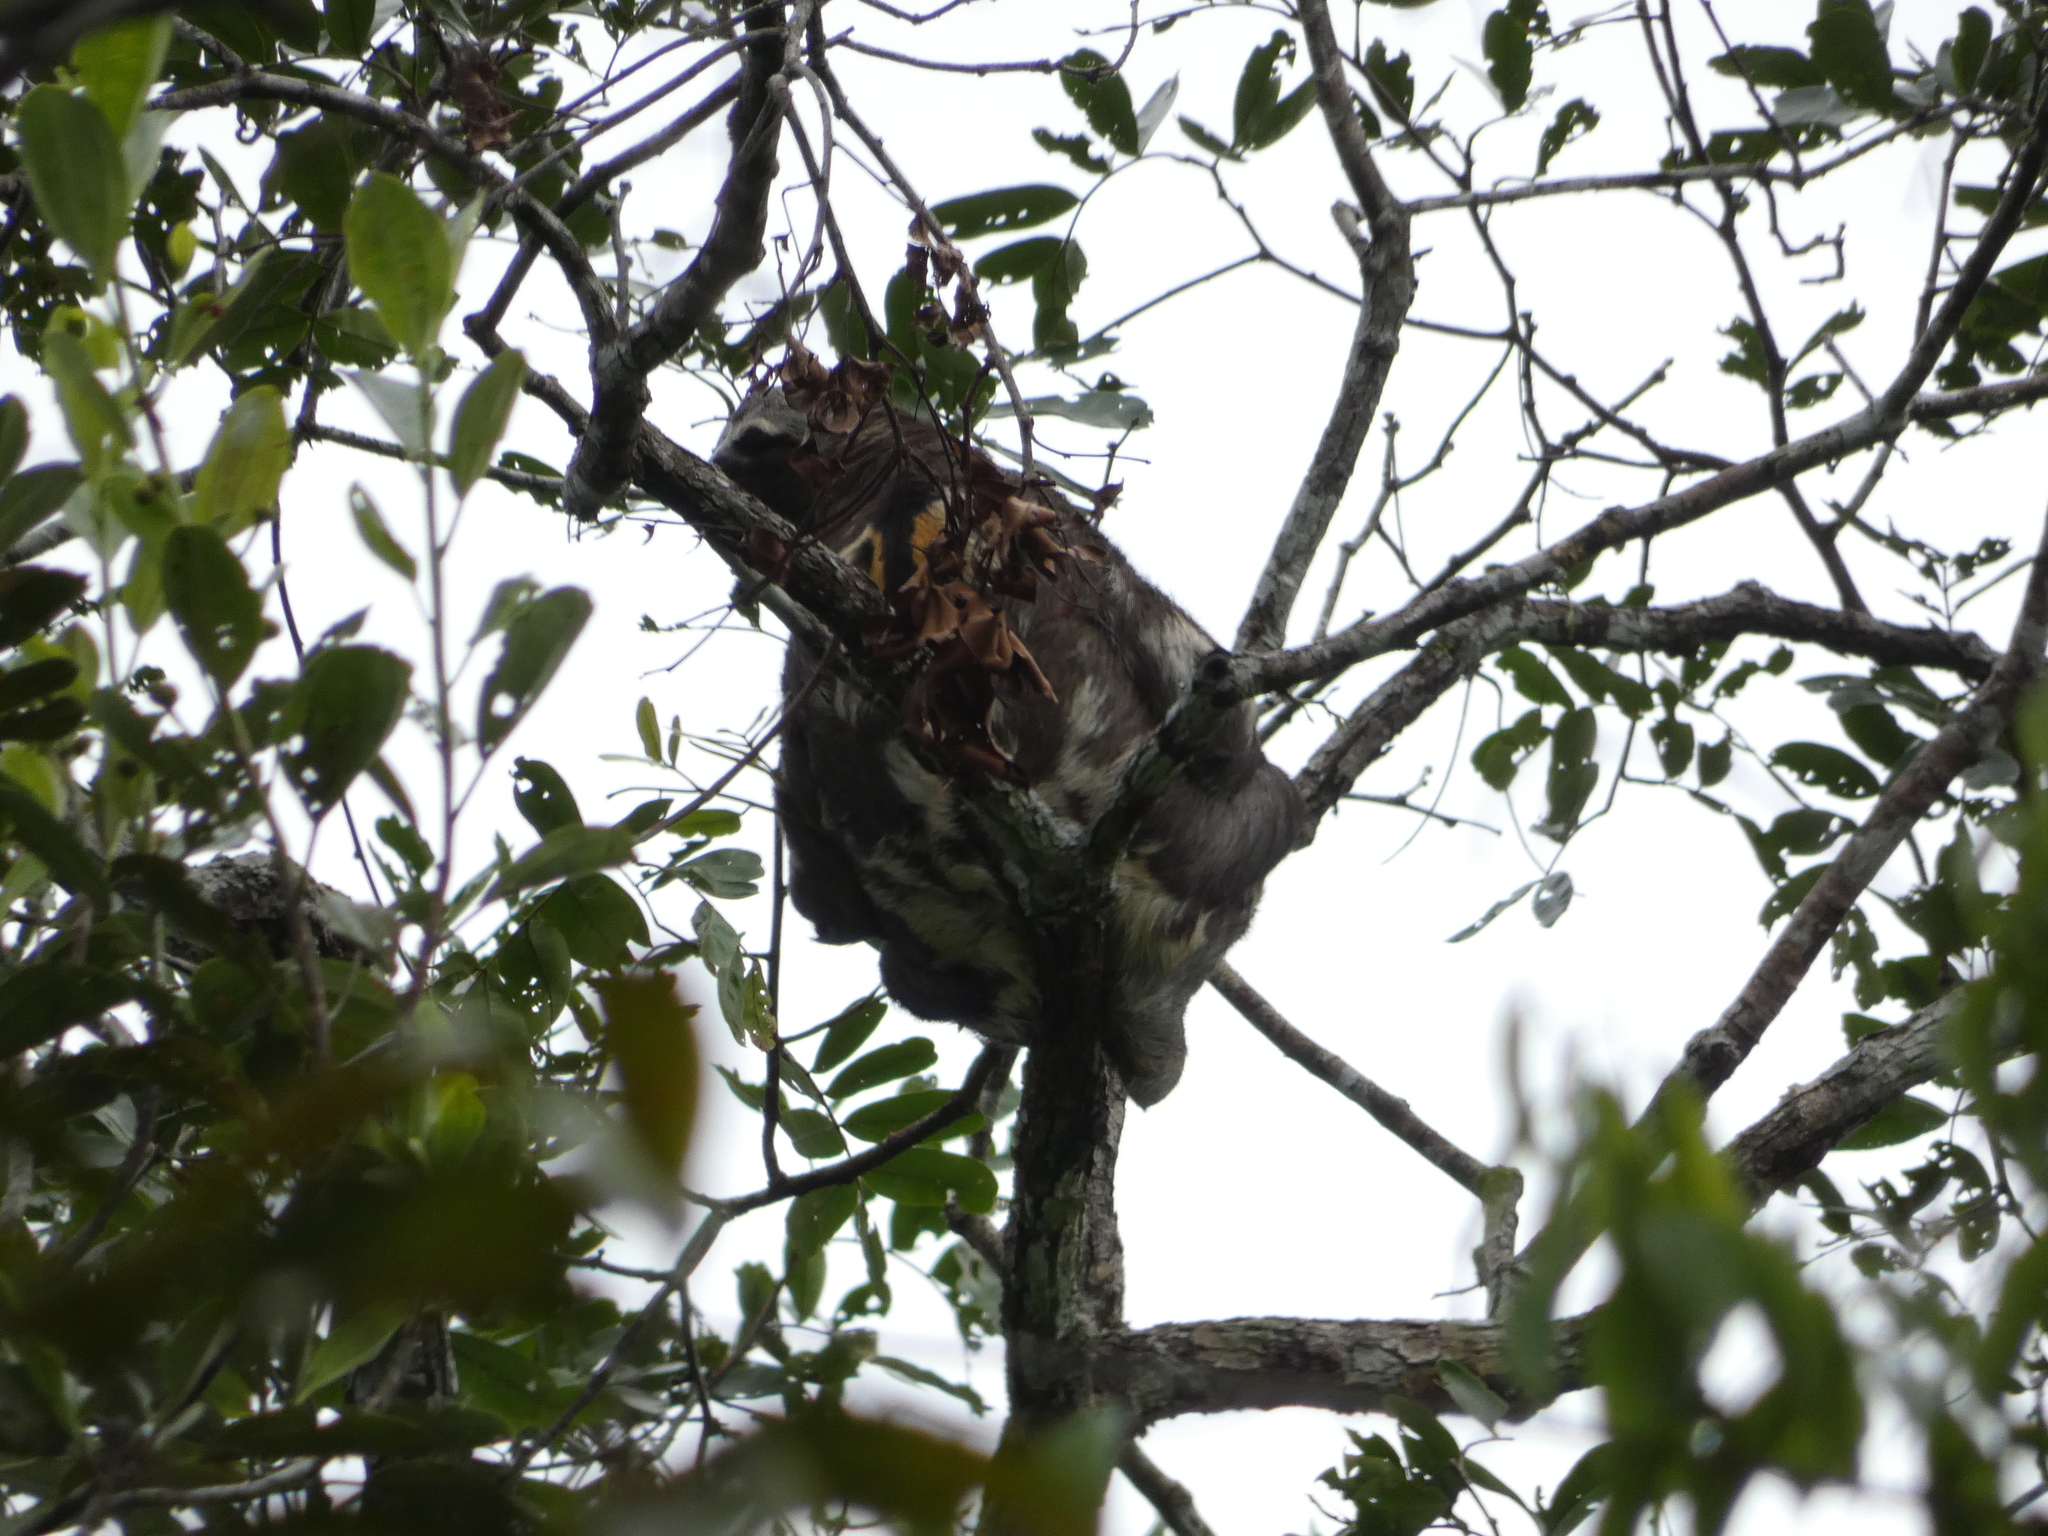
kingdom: Animalia
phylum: Chordata
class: Mammalia
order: Pilosa
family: Bradypodidae
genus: Bradypus
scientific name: Bradypus variegatus
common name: Brown-throated three-toed sloth
